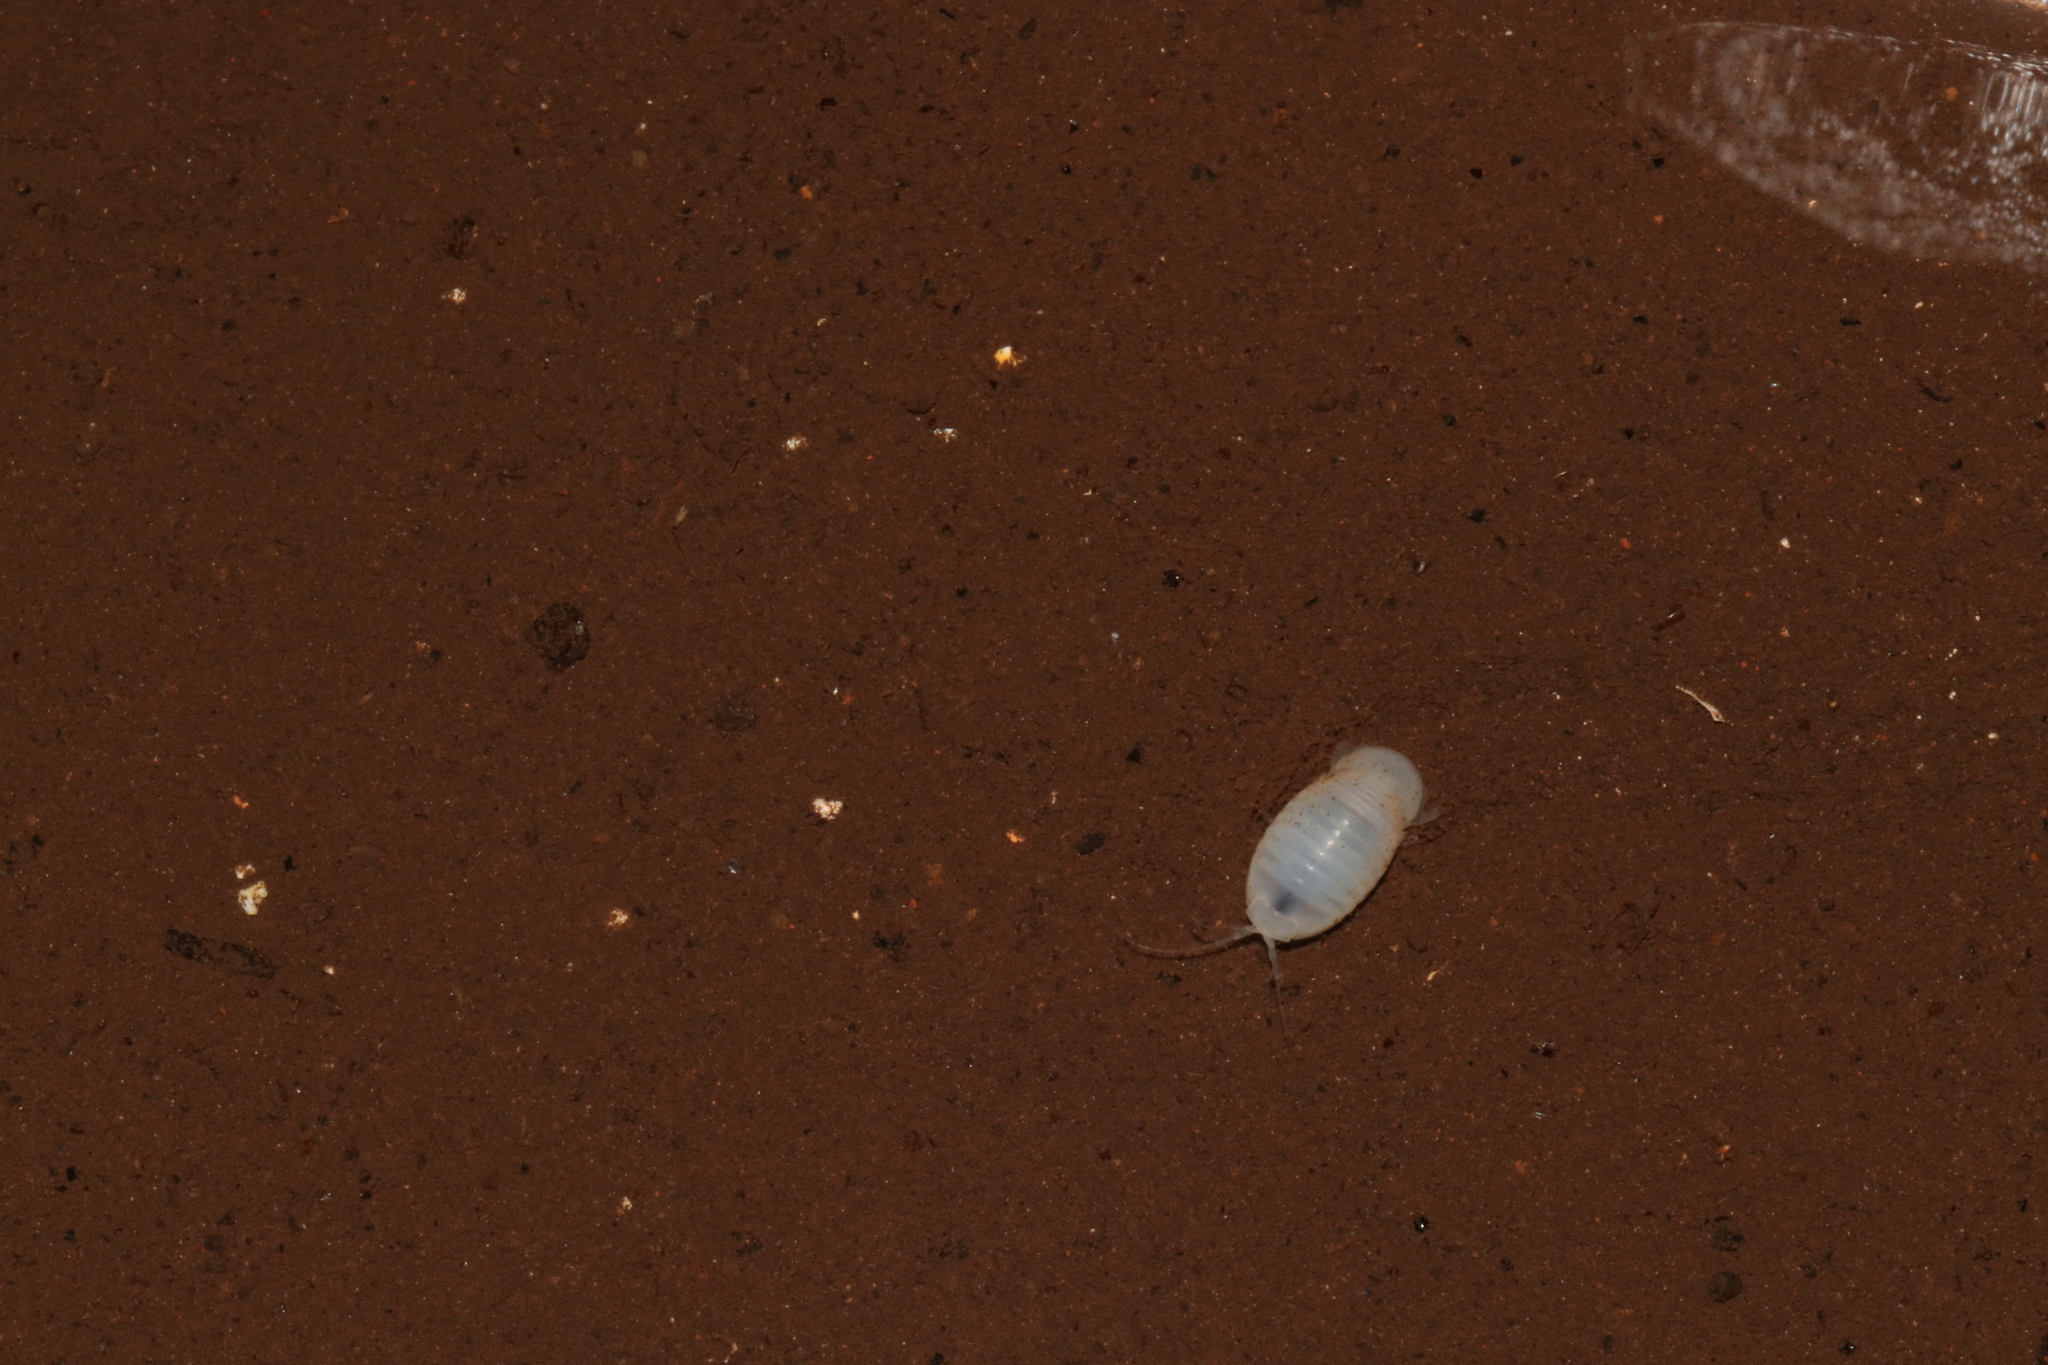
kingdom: Animalia
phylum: Arthropoda
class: Malacostraca
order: Isopoda
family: Cirolanidae
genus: Creaseriella
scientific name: Creaseriella anops
